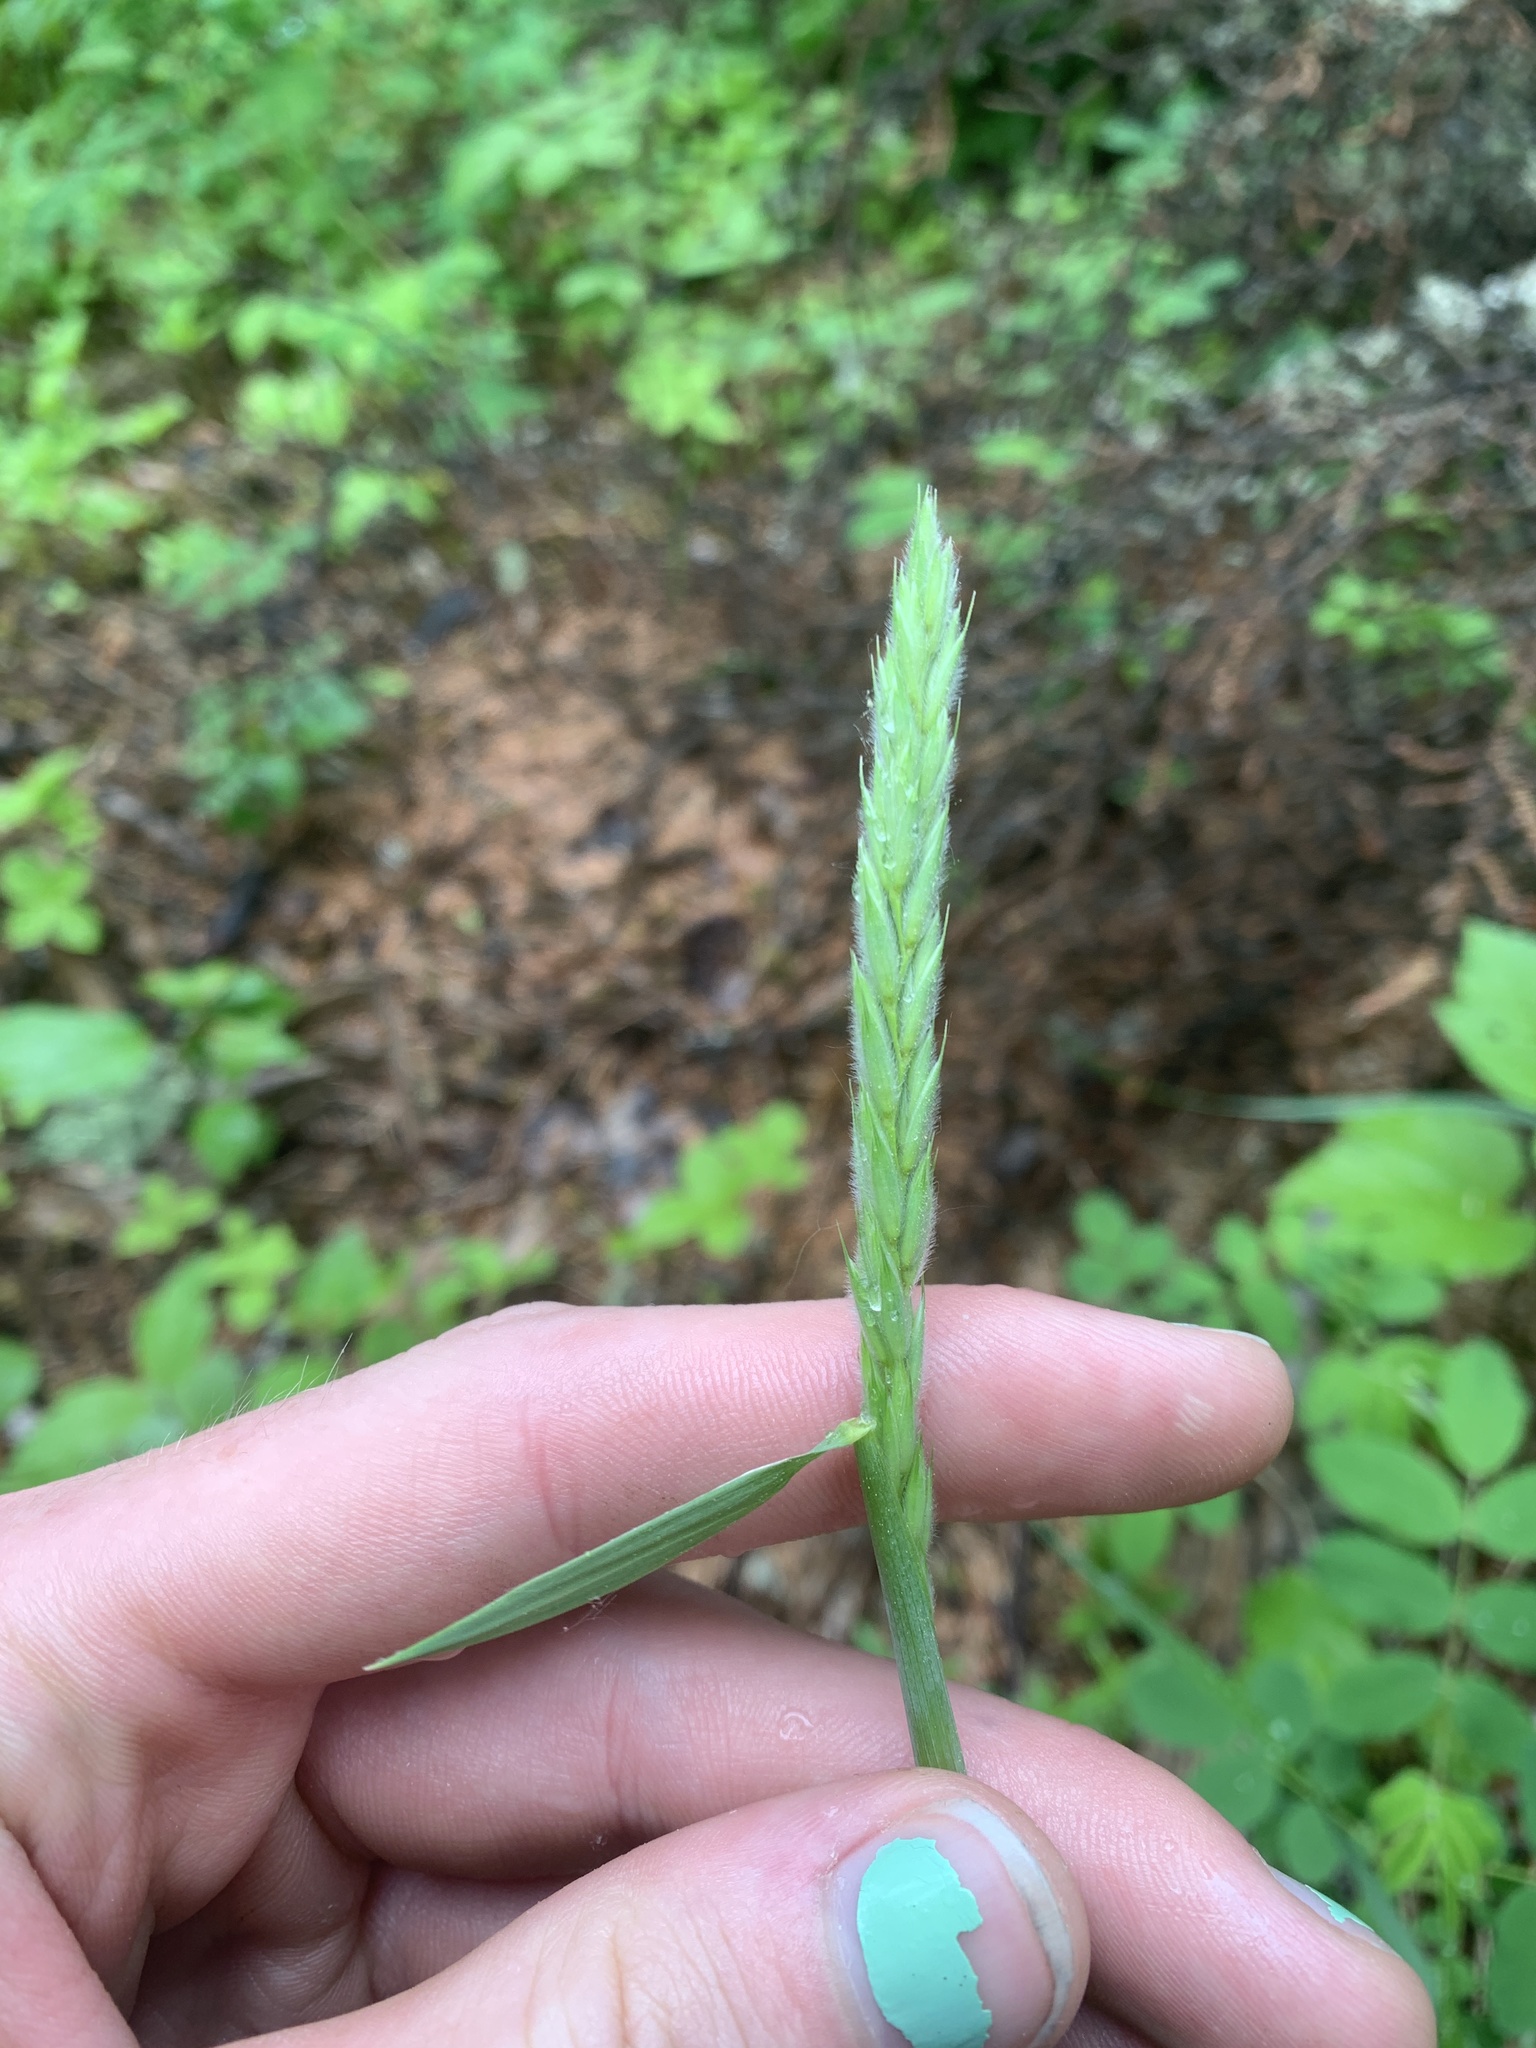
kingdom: Plantae
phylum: Tracheophyta
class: Liliopsida
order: Poales
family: Poaceae
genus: Leymus
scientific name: Leymus innovatus
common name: Boreal wild rye
